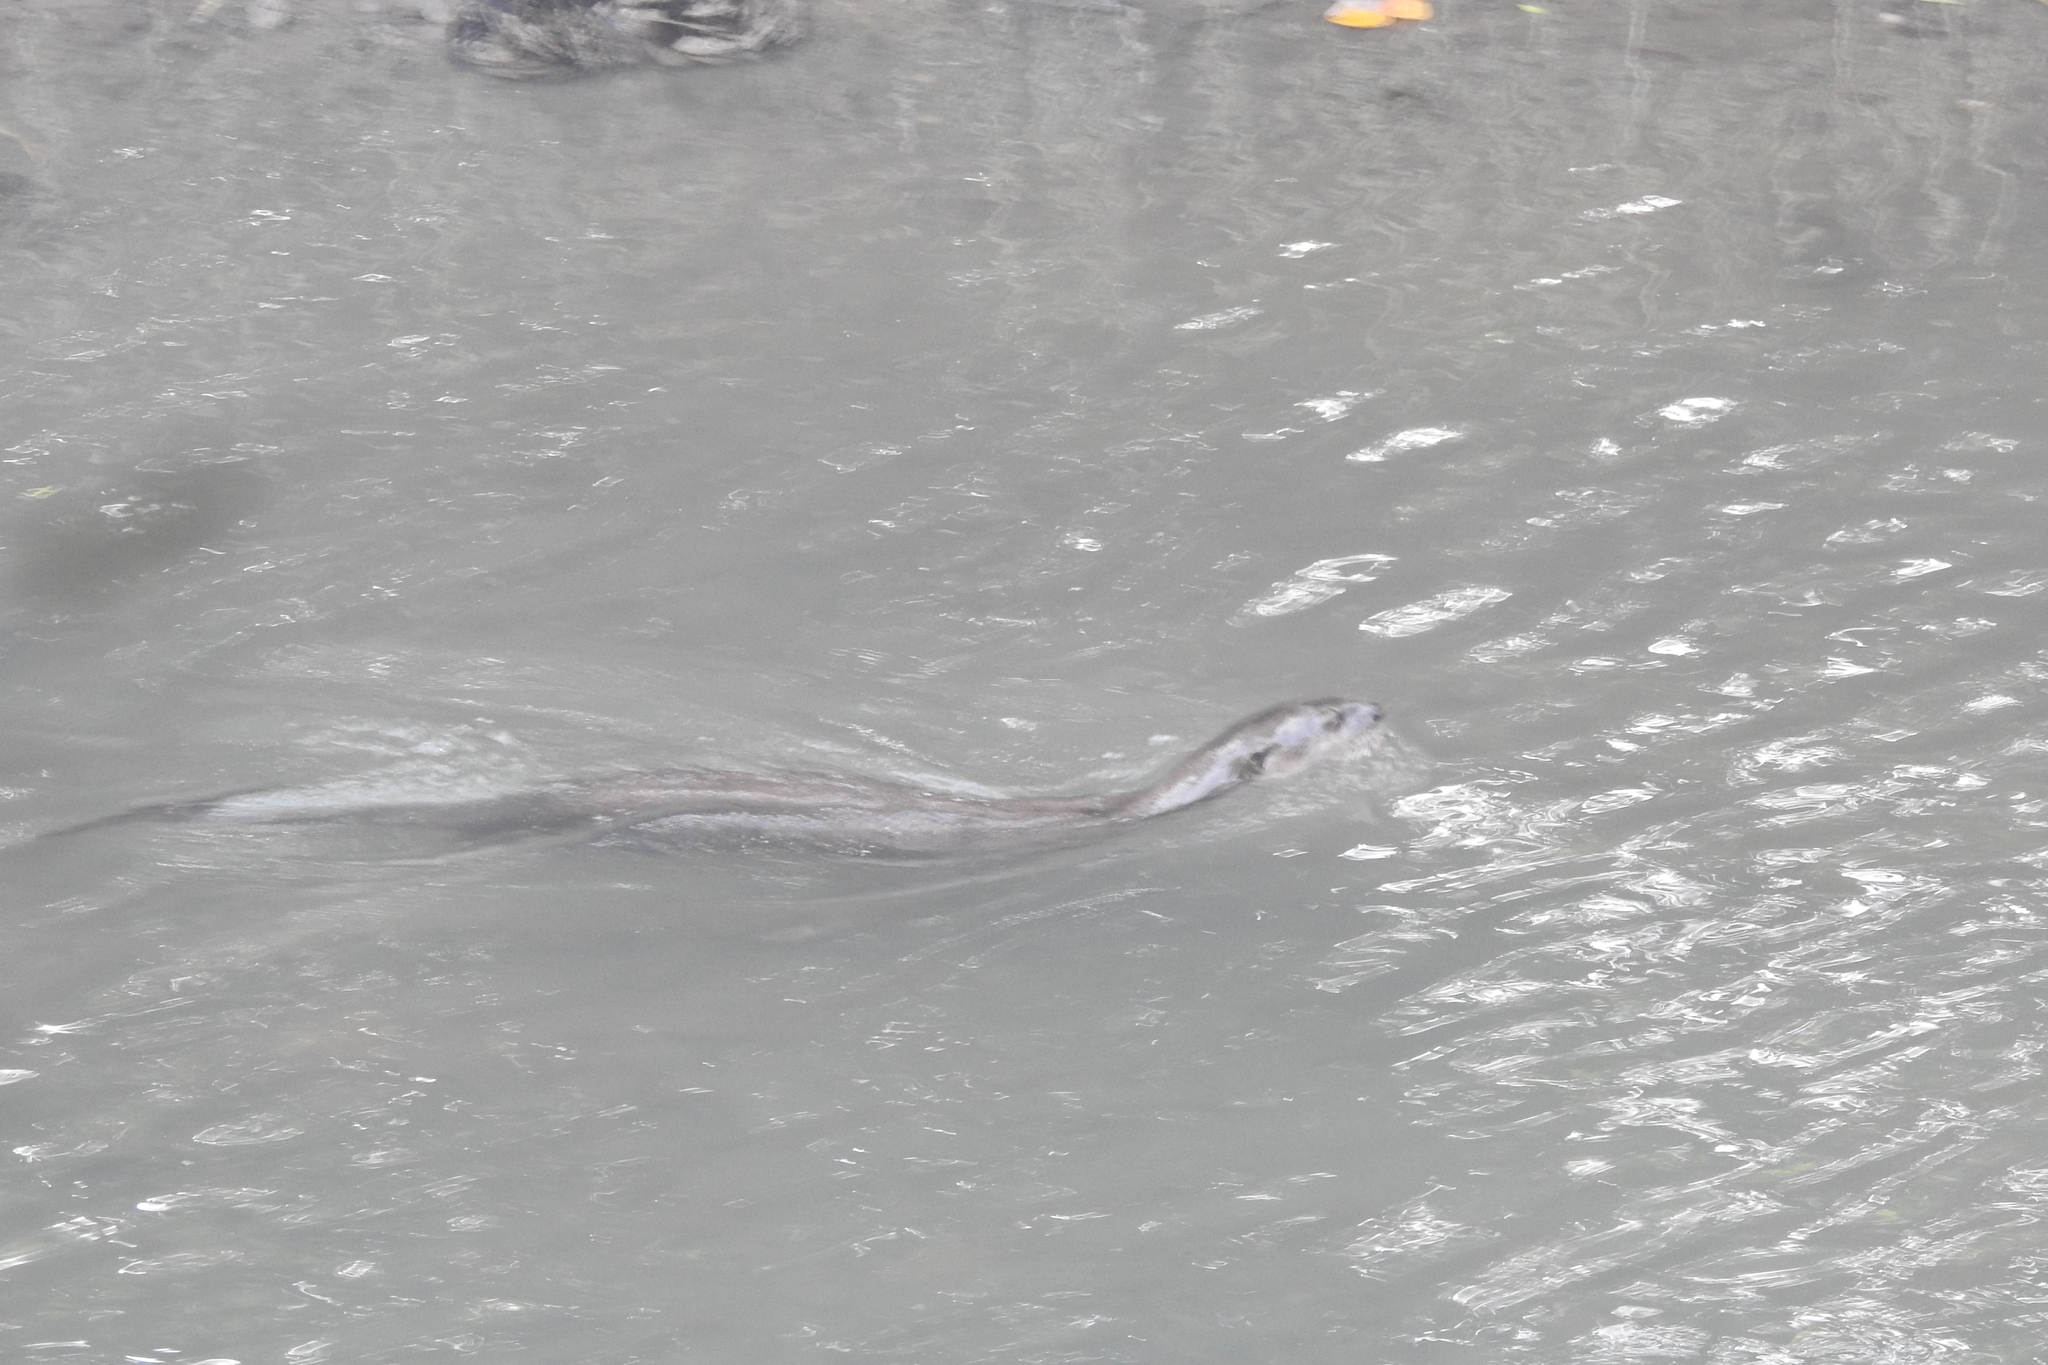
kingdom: Animalia
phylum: Chordata
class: Mammalia
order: Carnivora
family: Mustelidae
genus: Lutrogale
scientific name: Lutrogale perspicillata
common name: Smooth-coated otter
